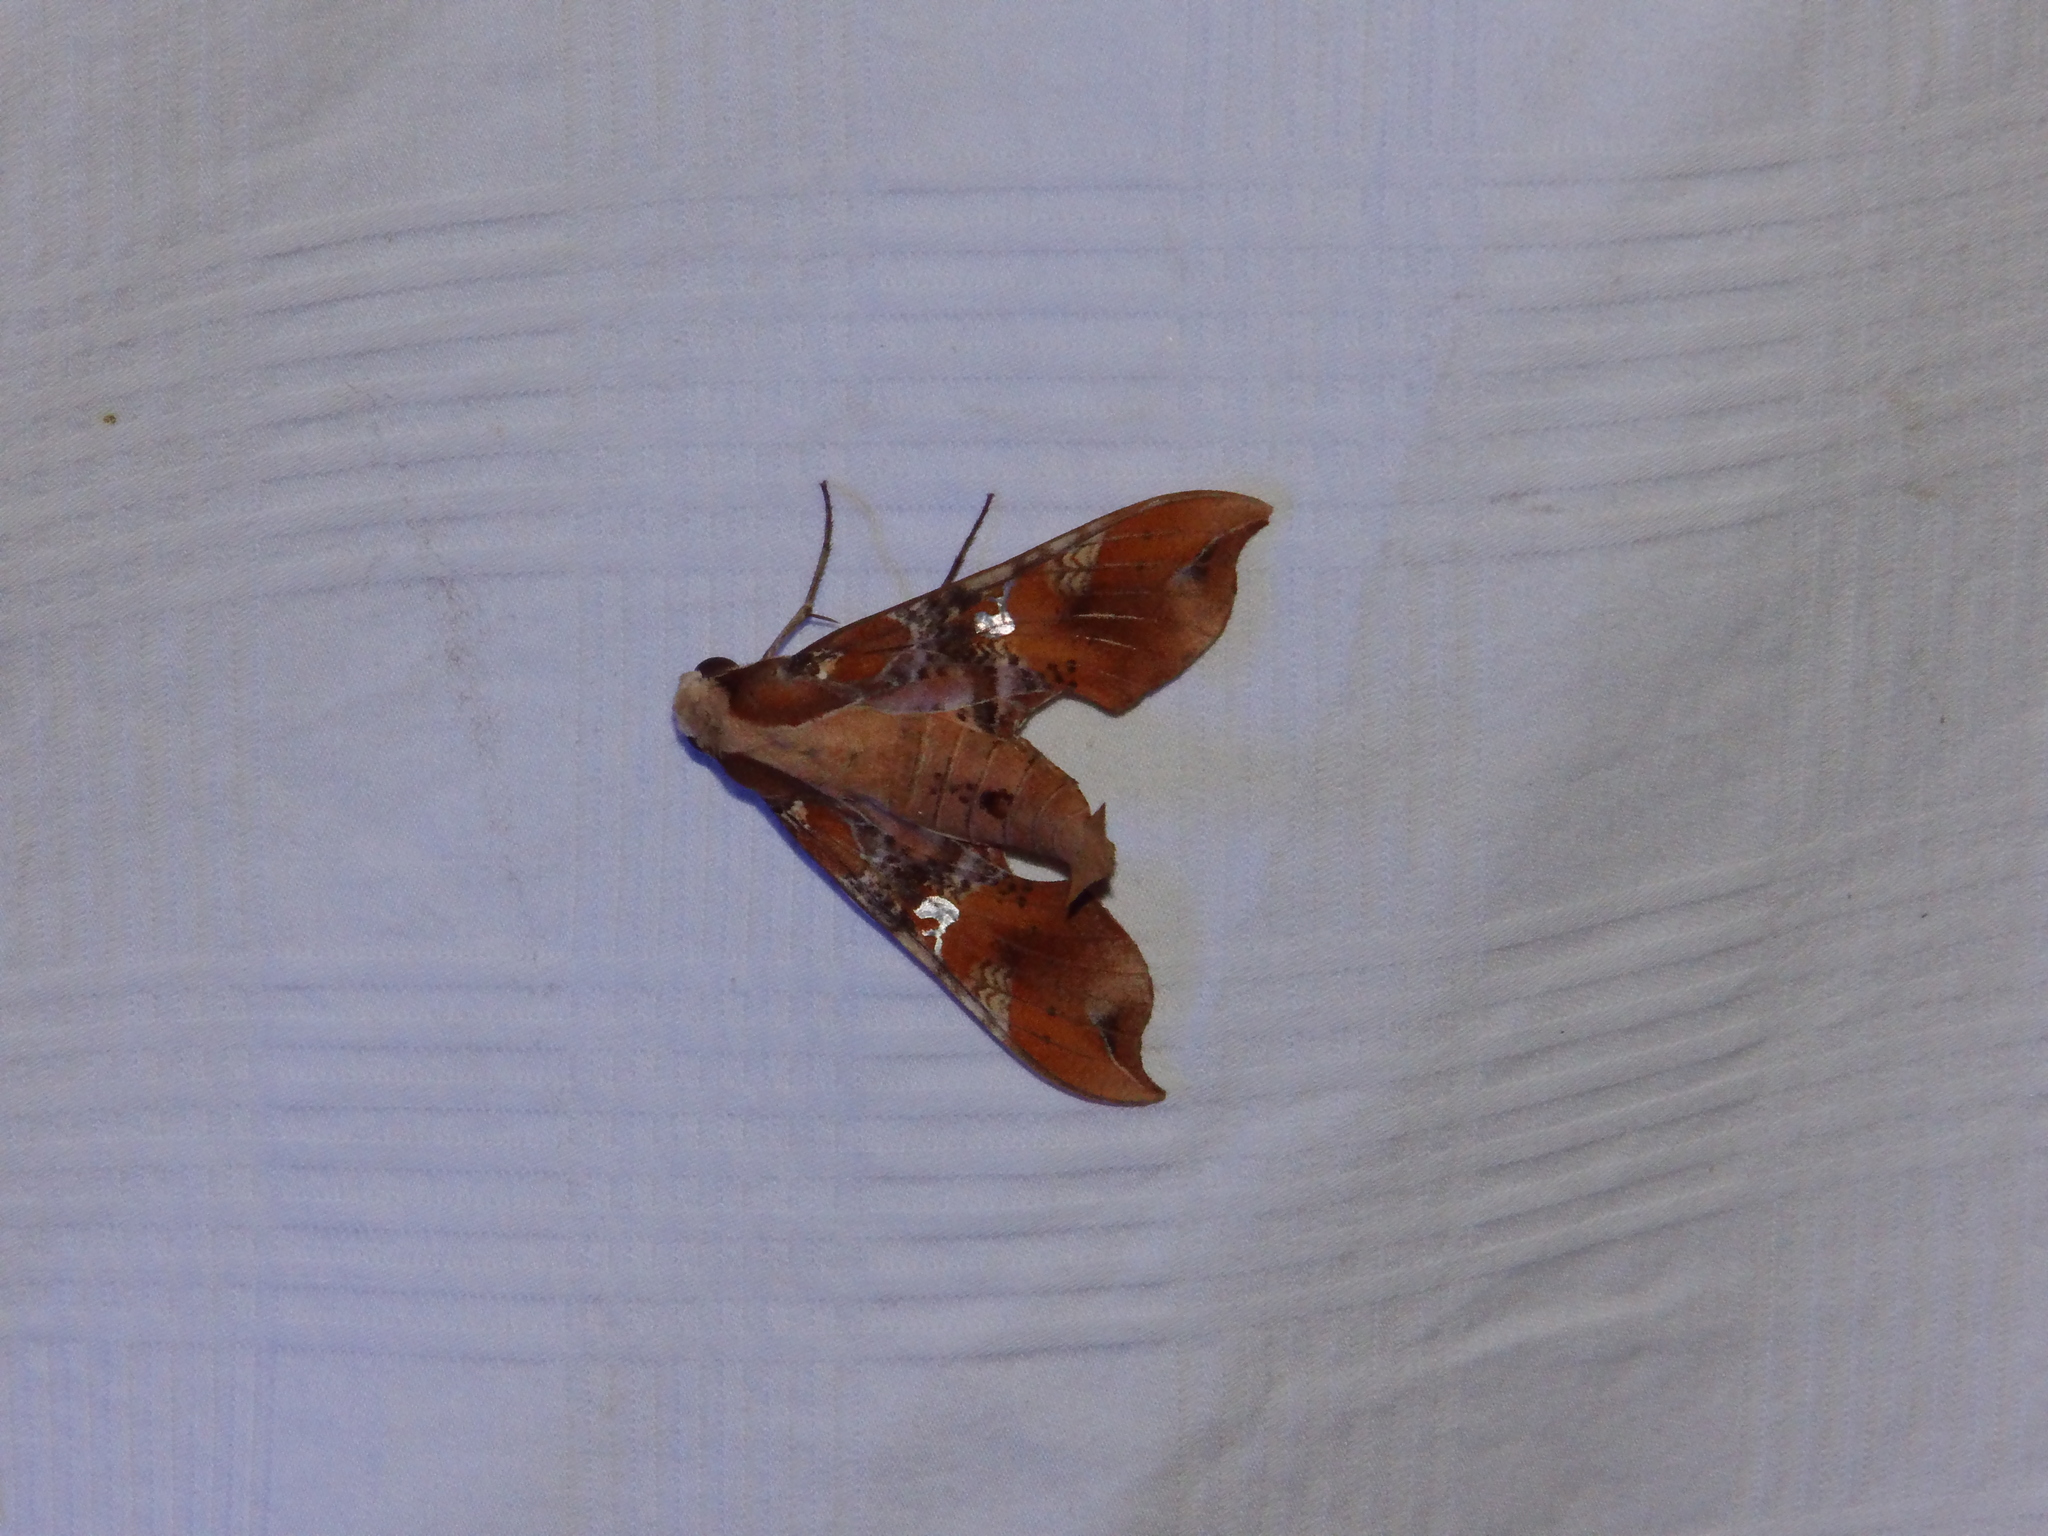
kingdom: Animalia
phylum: Arthropoda
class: Insecta
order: Lepidoptera
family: Sphingidae
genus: Callionima
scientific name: Callionima falcifera
